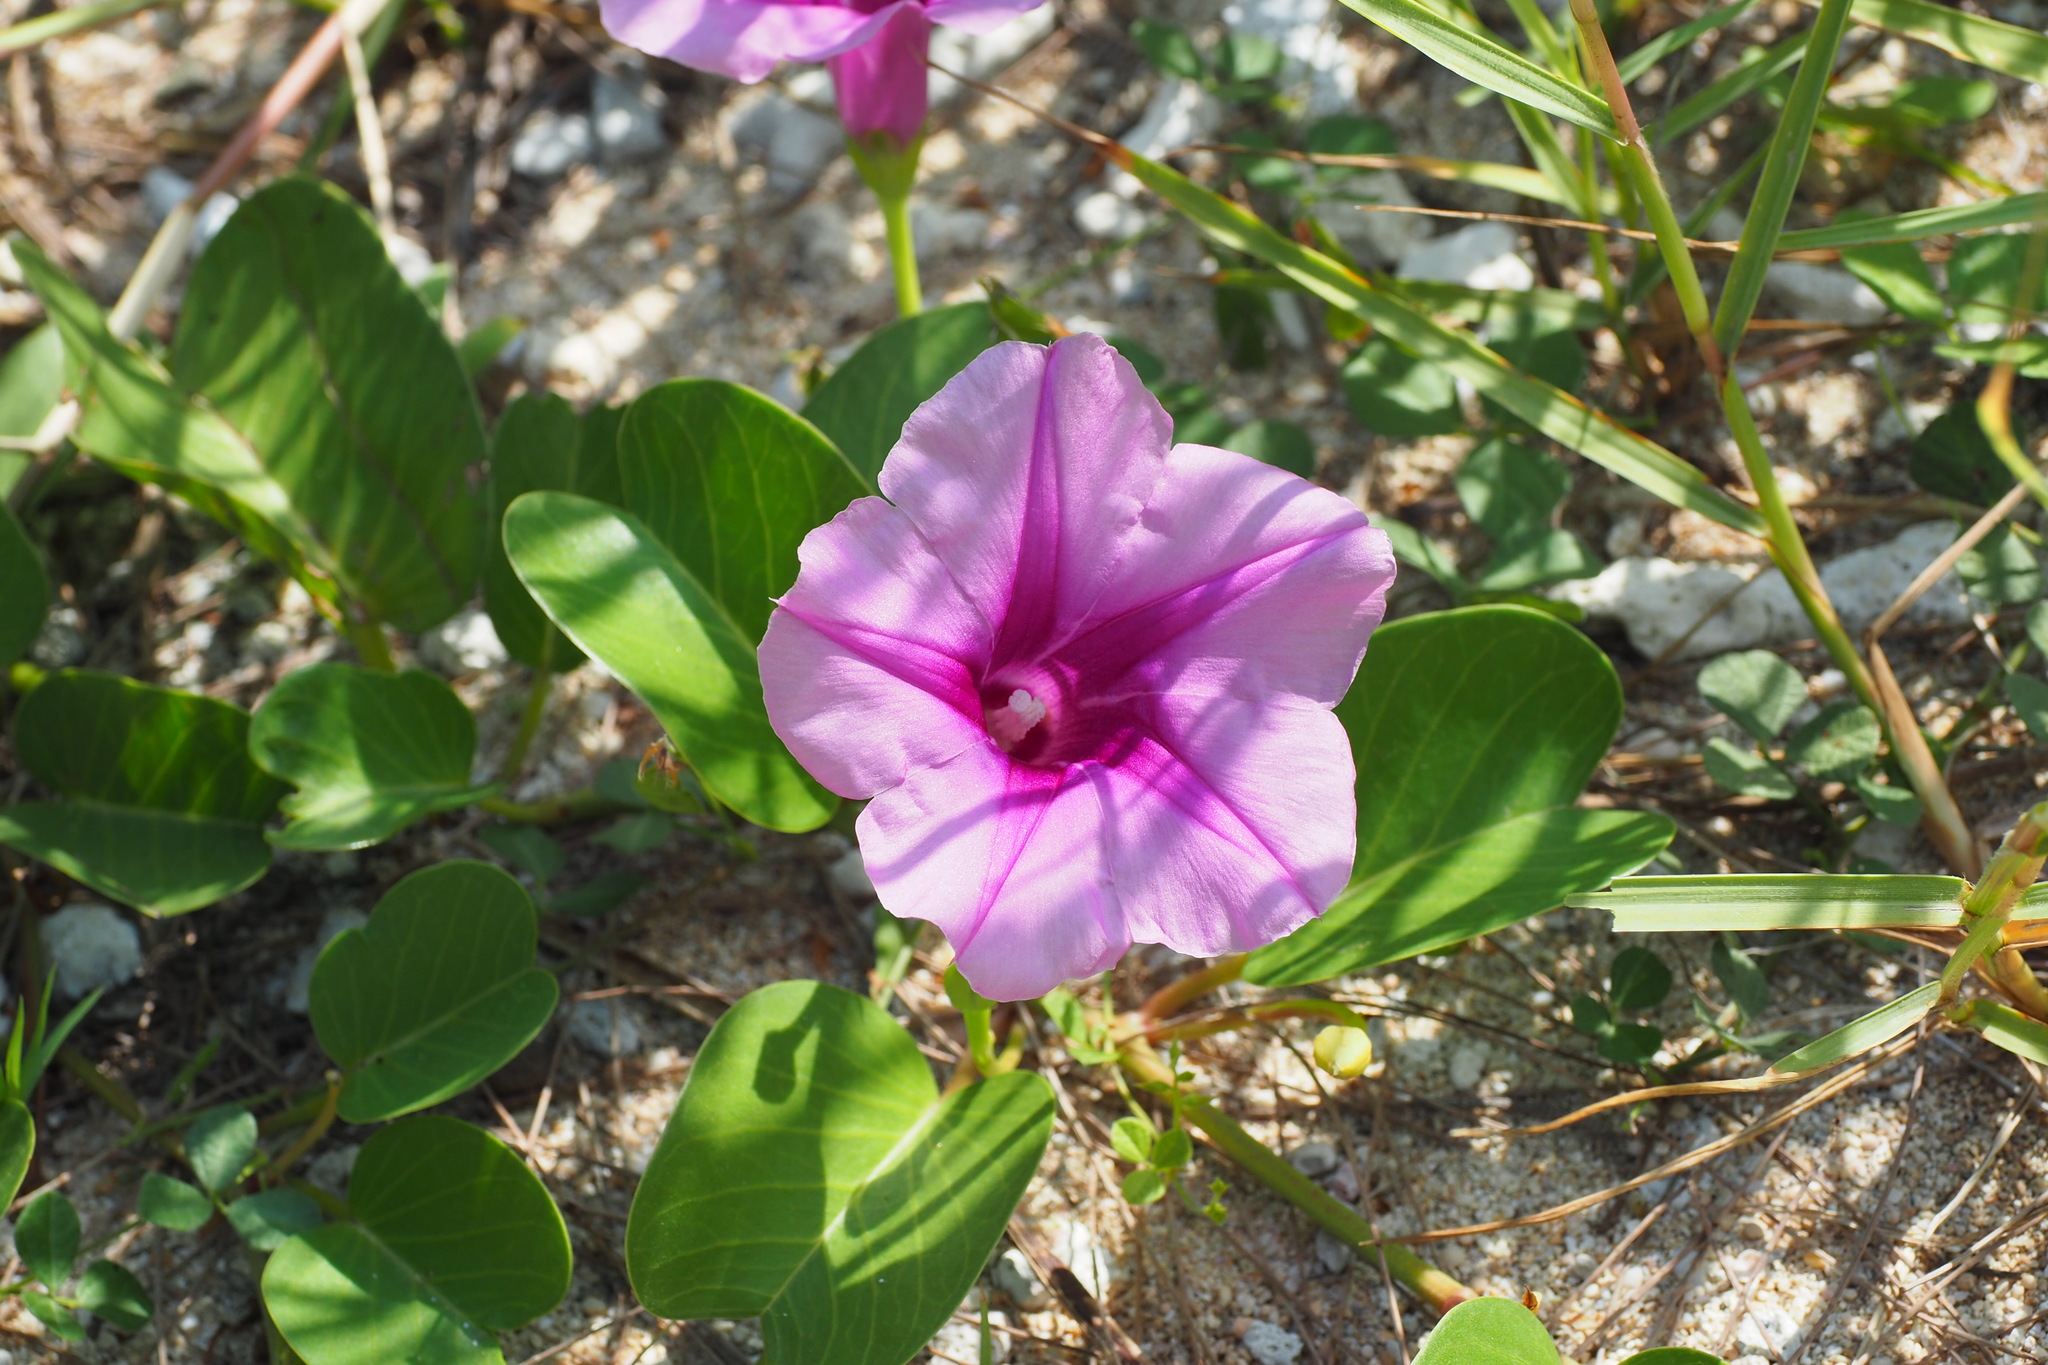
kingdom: Plantae
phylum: Tracheophyta
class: Magnoliopsida
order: Solanales
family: Convolvulaceae
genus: Ipomoea
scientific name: Ipomoea pes-caprae
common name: Beach morning glory
